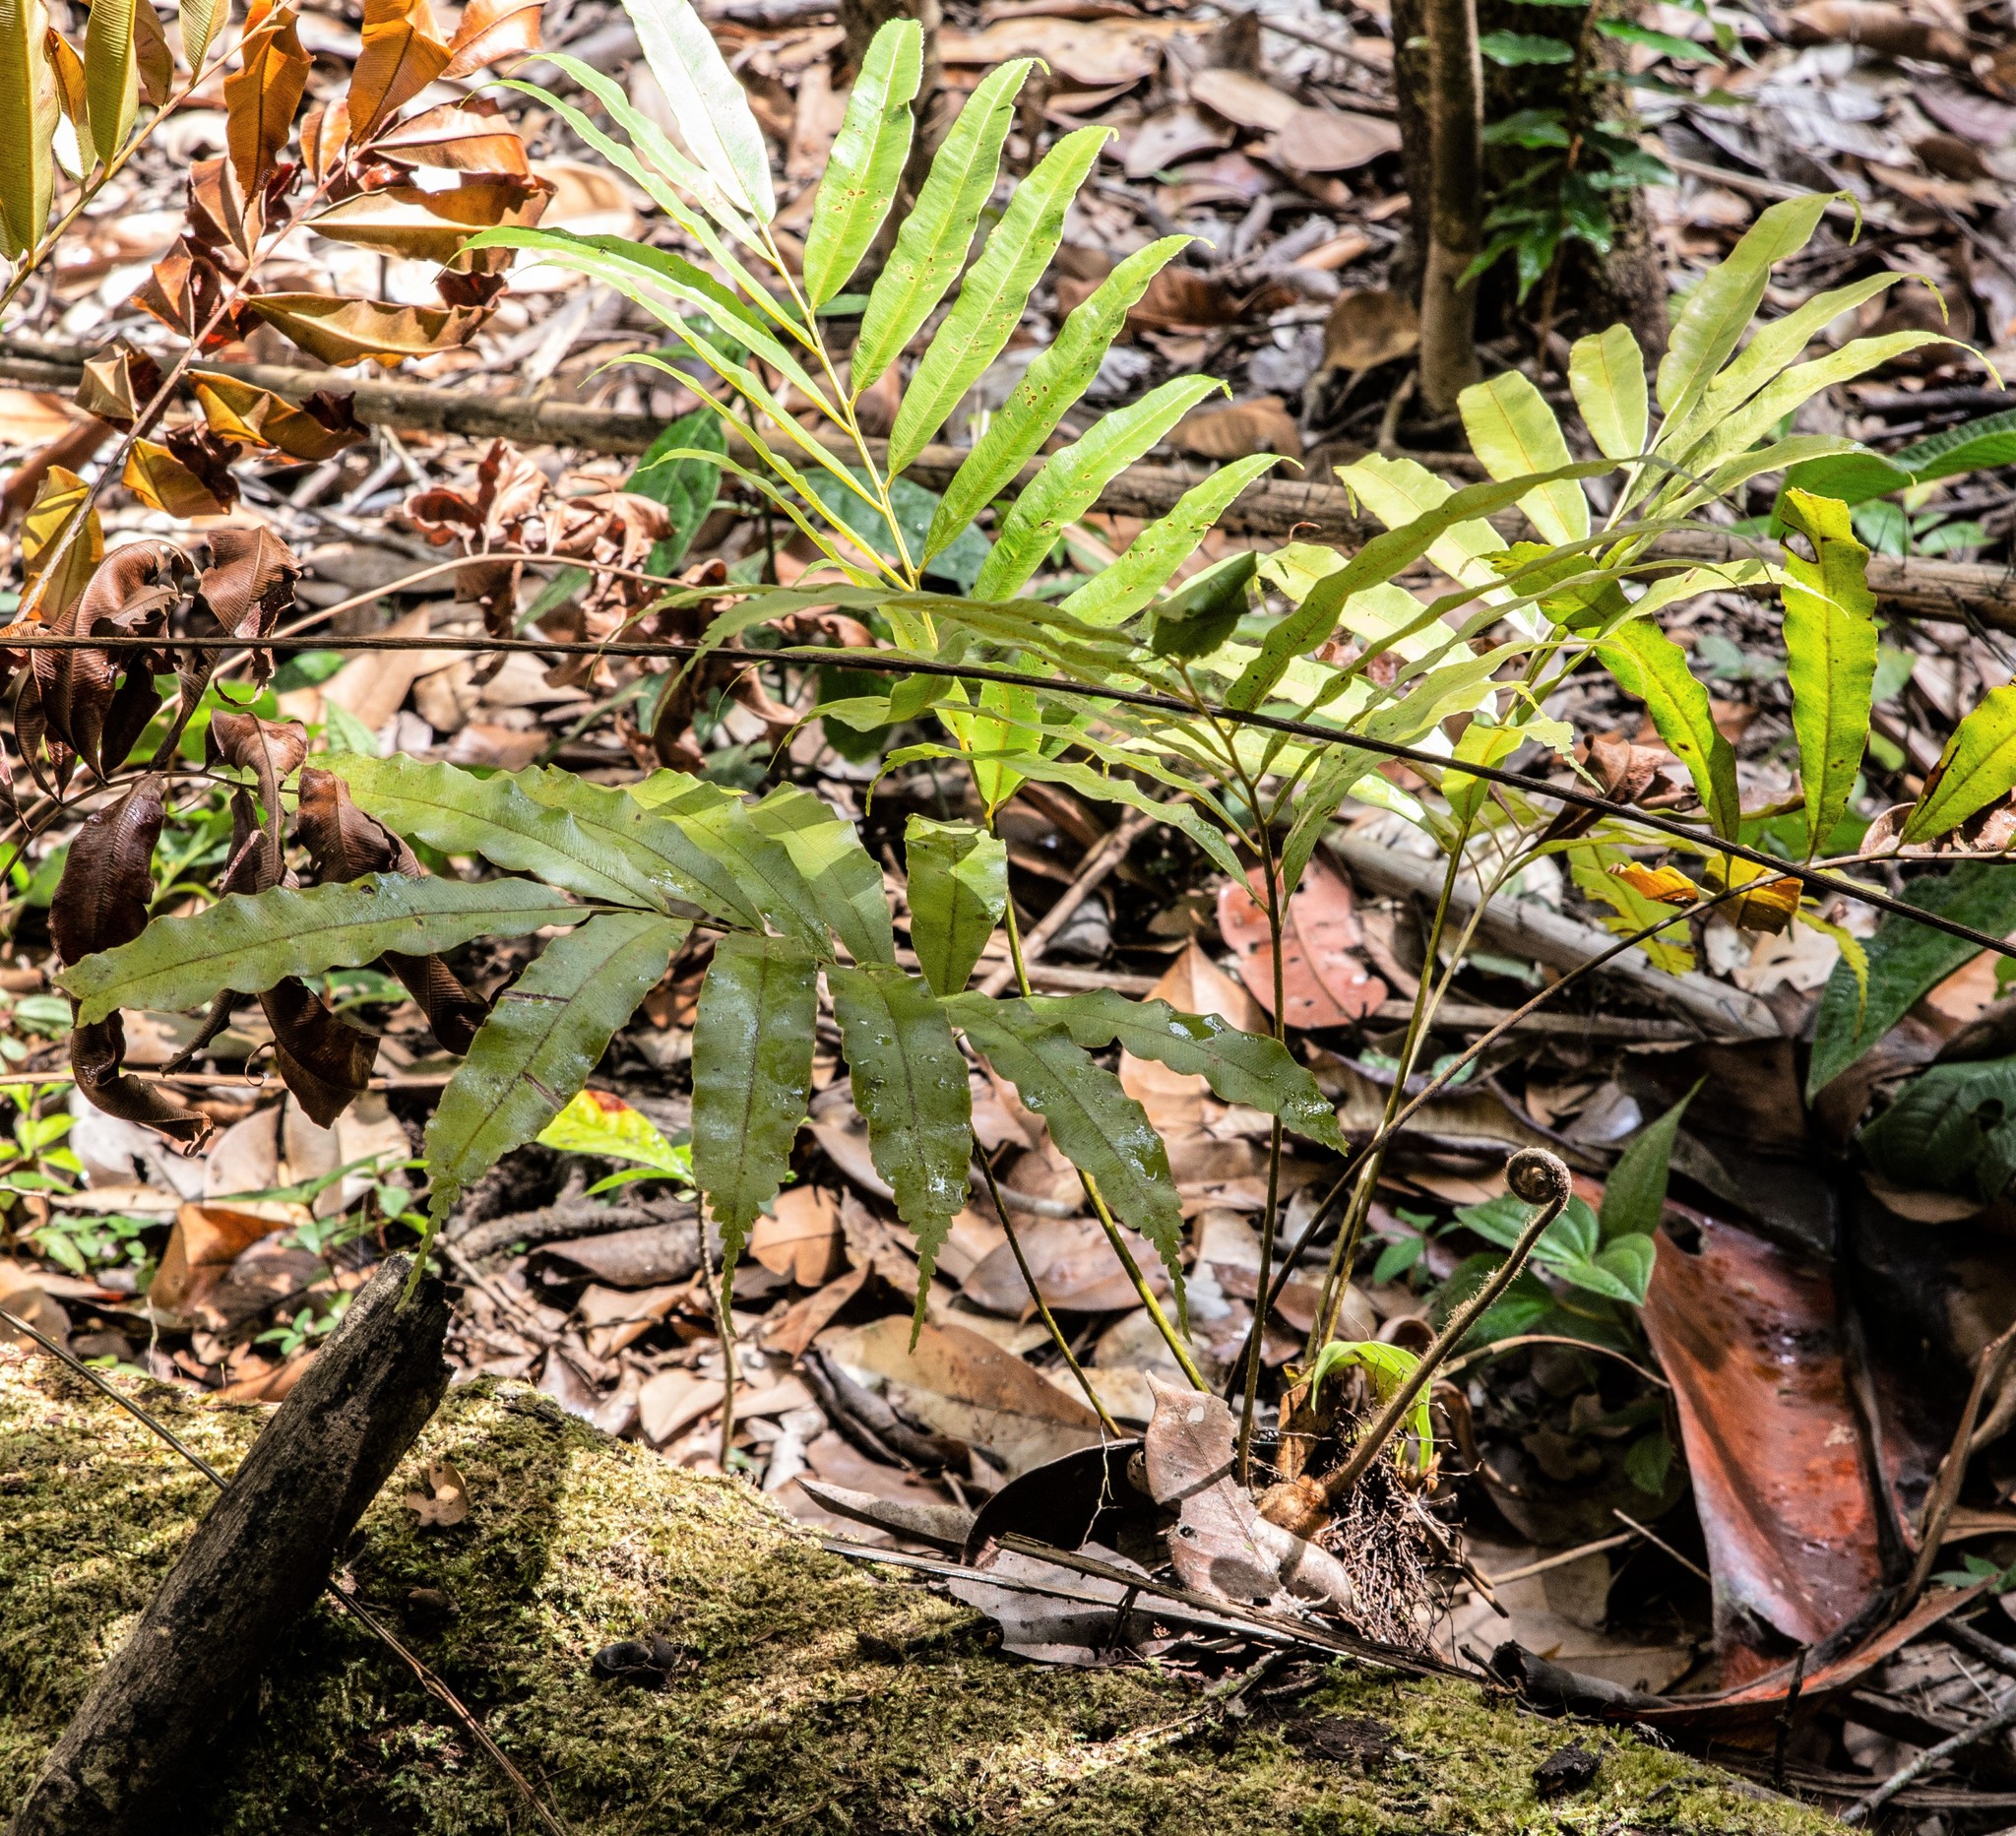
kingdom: Plantae
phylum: Tracheophyta
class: Polypodiopsida
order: Cyatheales
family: Metaxyaceae
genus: Metaxya
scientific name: Metaxya scalaris
